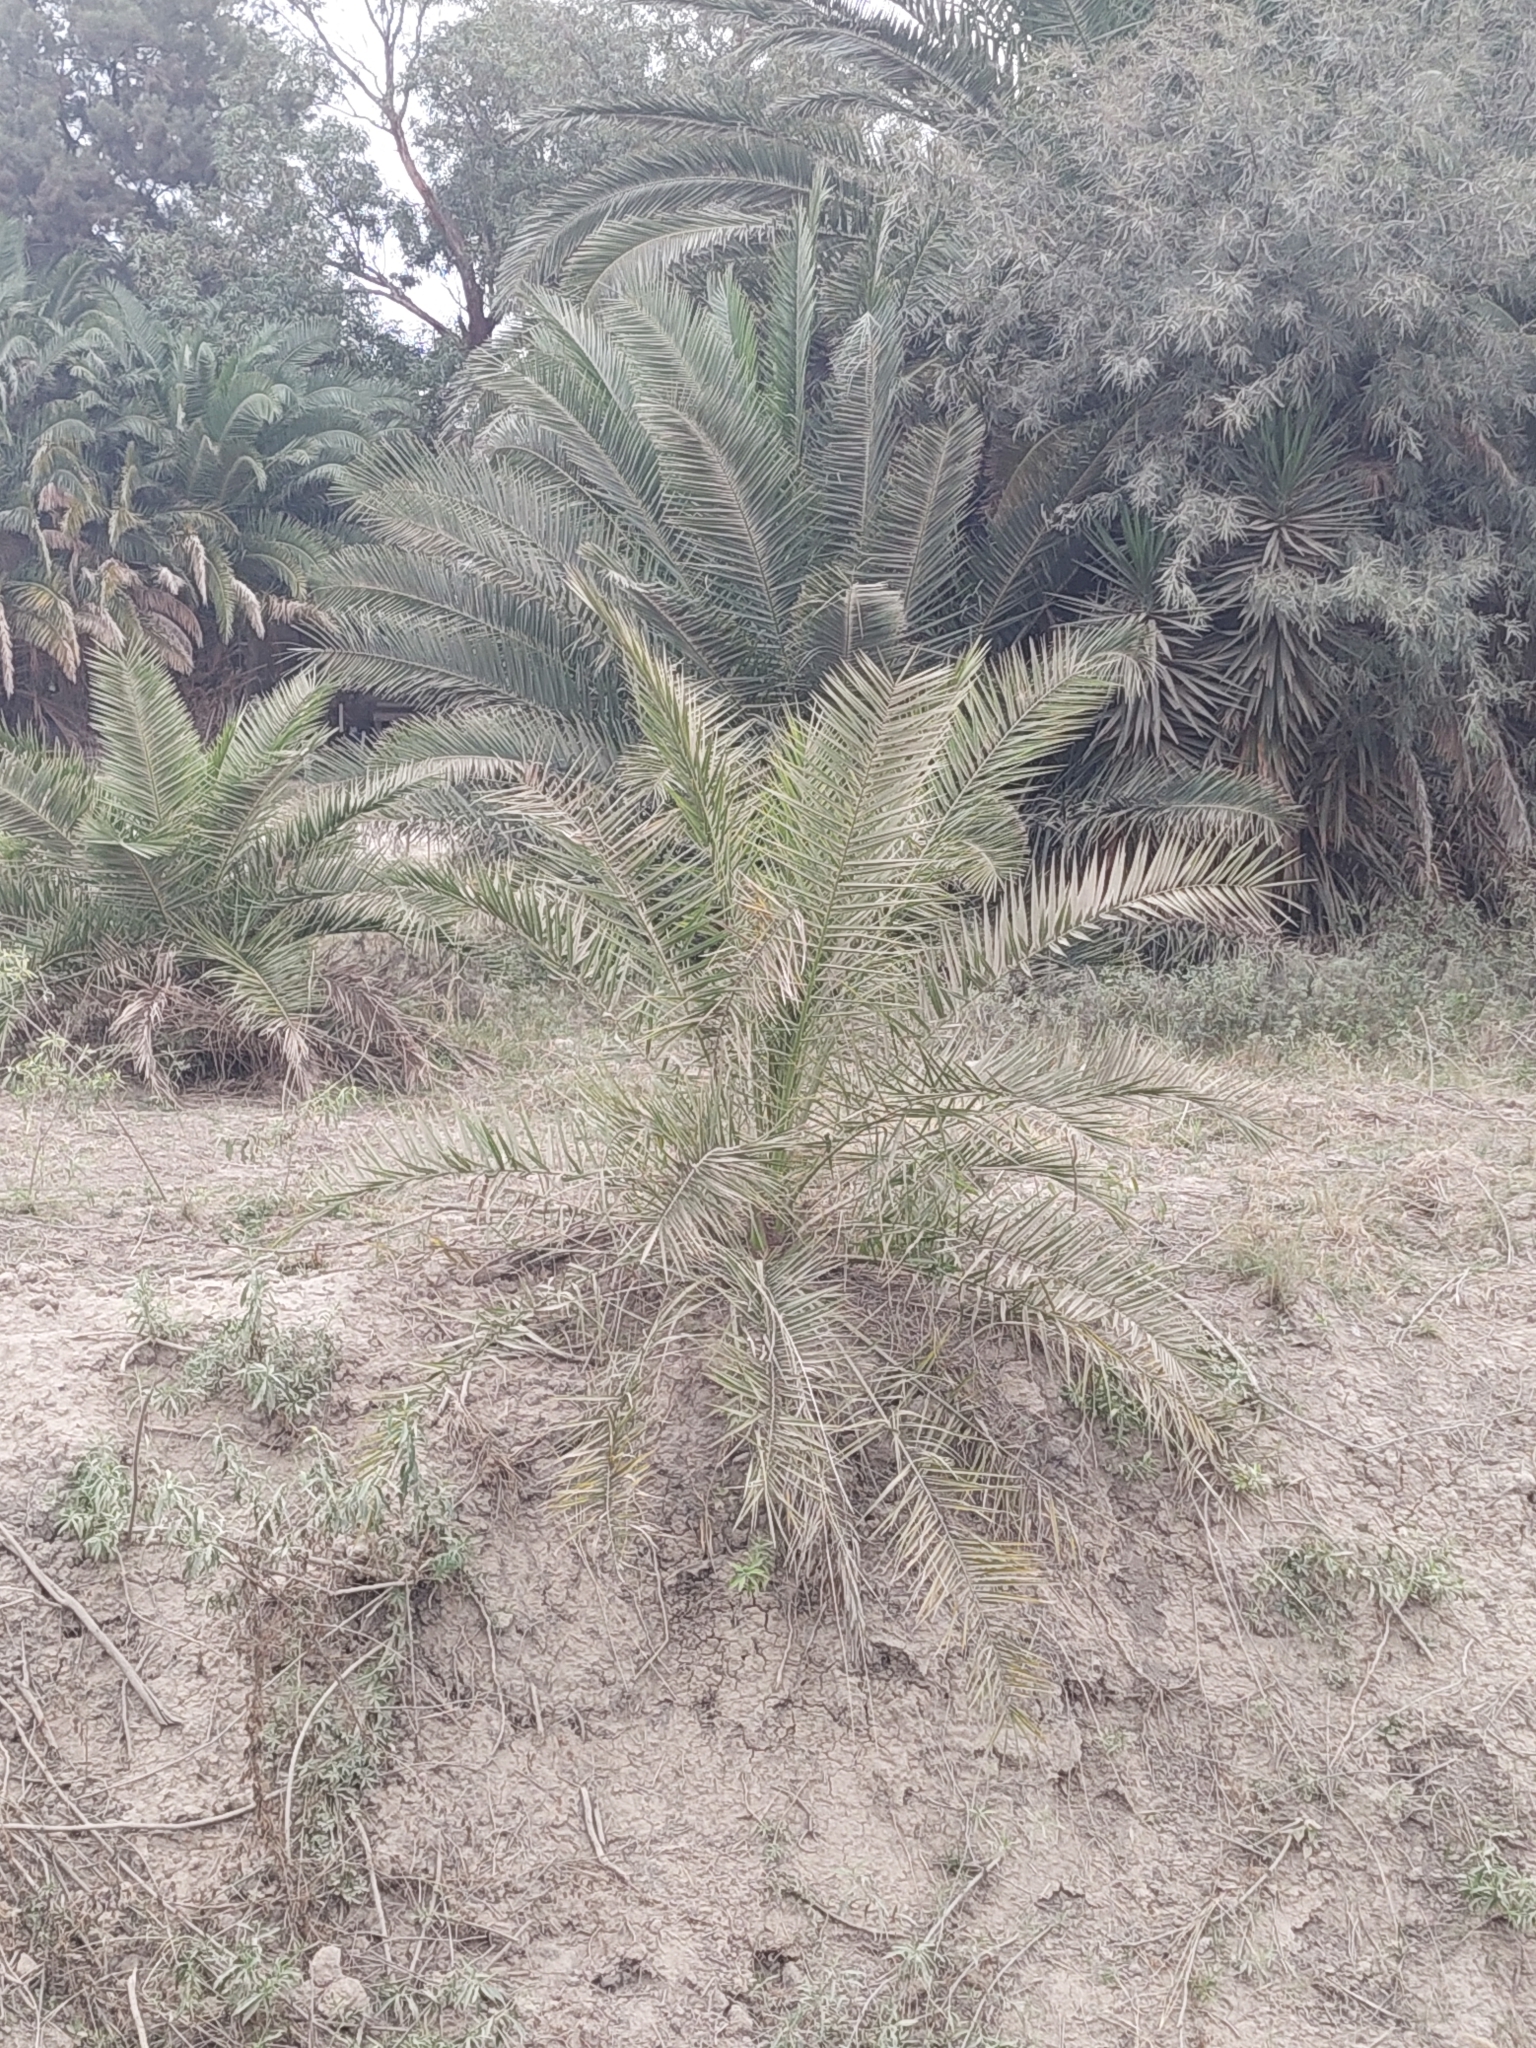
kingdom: Plantae
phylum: Tracheophyta
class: Liliopsida
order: Arecales
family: Arecaceae
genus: Phoenix
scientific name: Phoenix canariensis
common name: Canary island date palm
